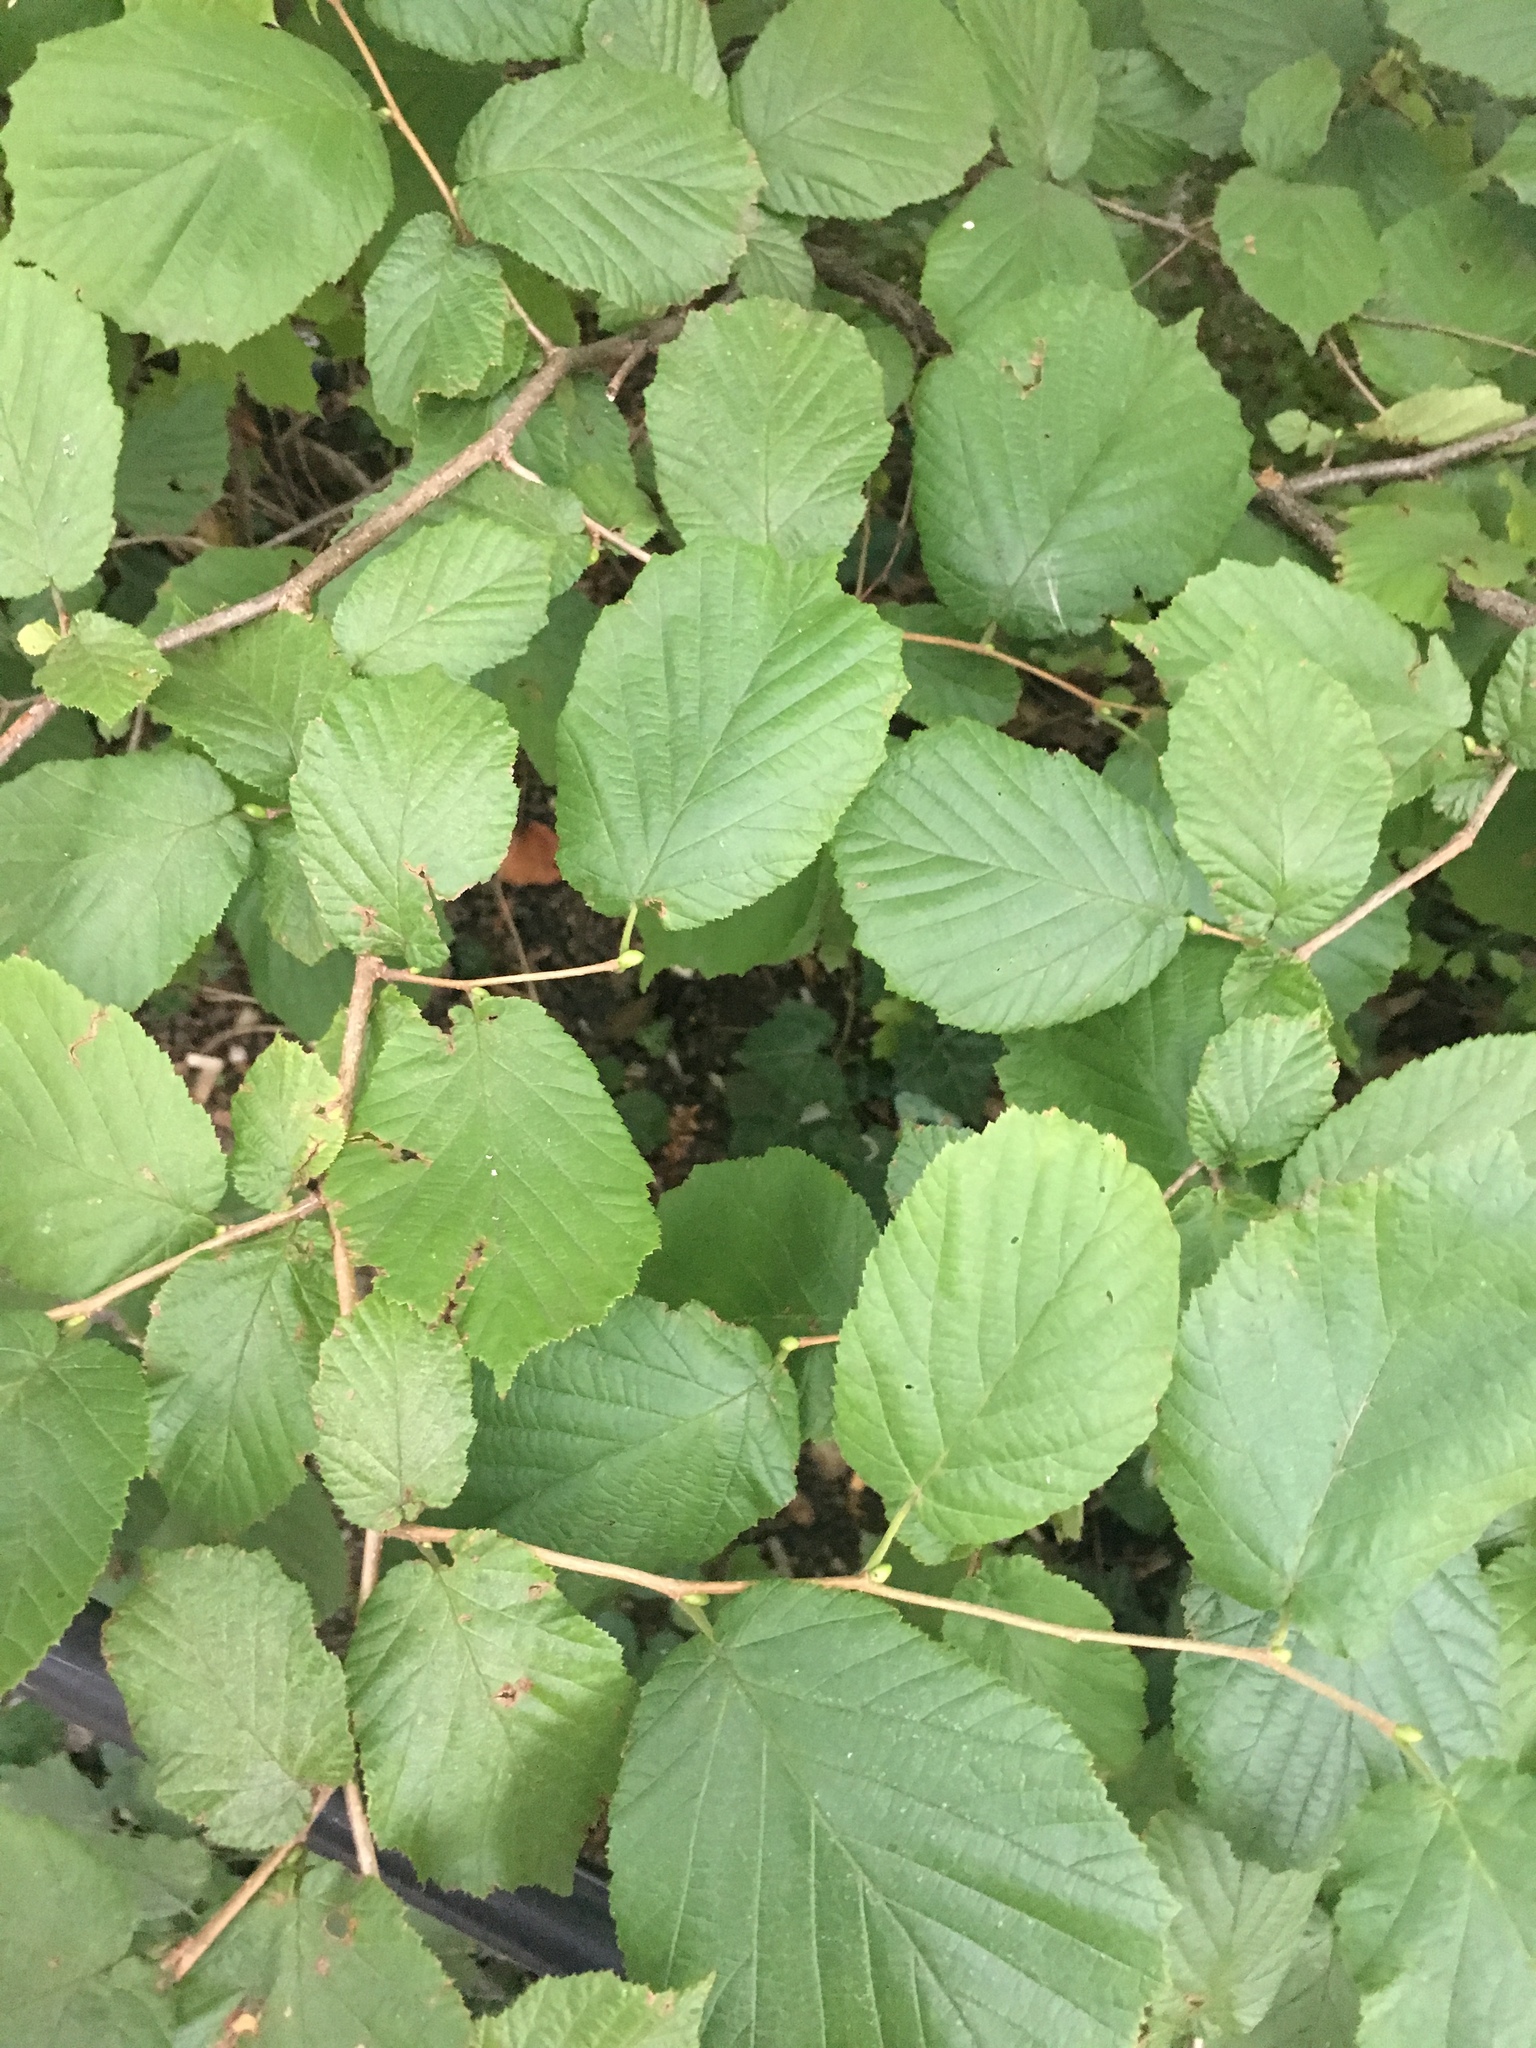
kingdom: Plantae
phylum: Tracheophyta
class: Magnoliopsida
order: Fagales
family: Betulaceae
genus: Corylus
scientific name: Corylus avellana
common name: European hazel
